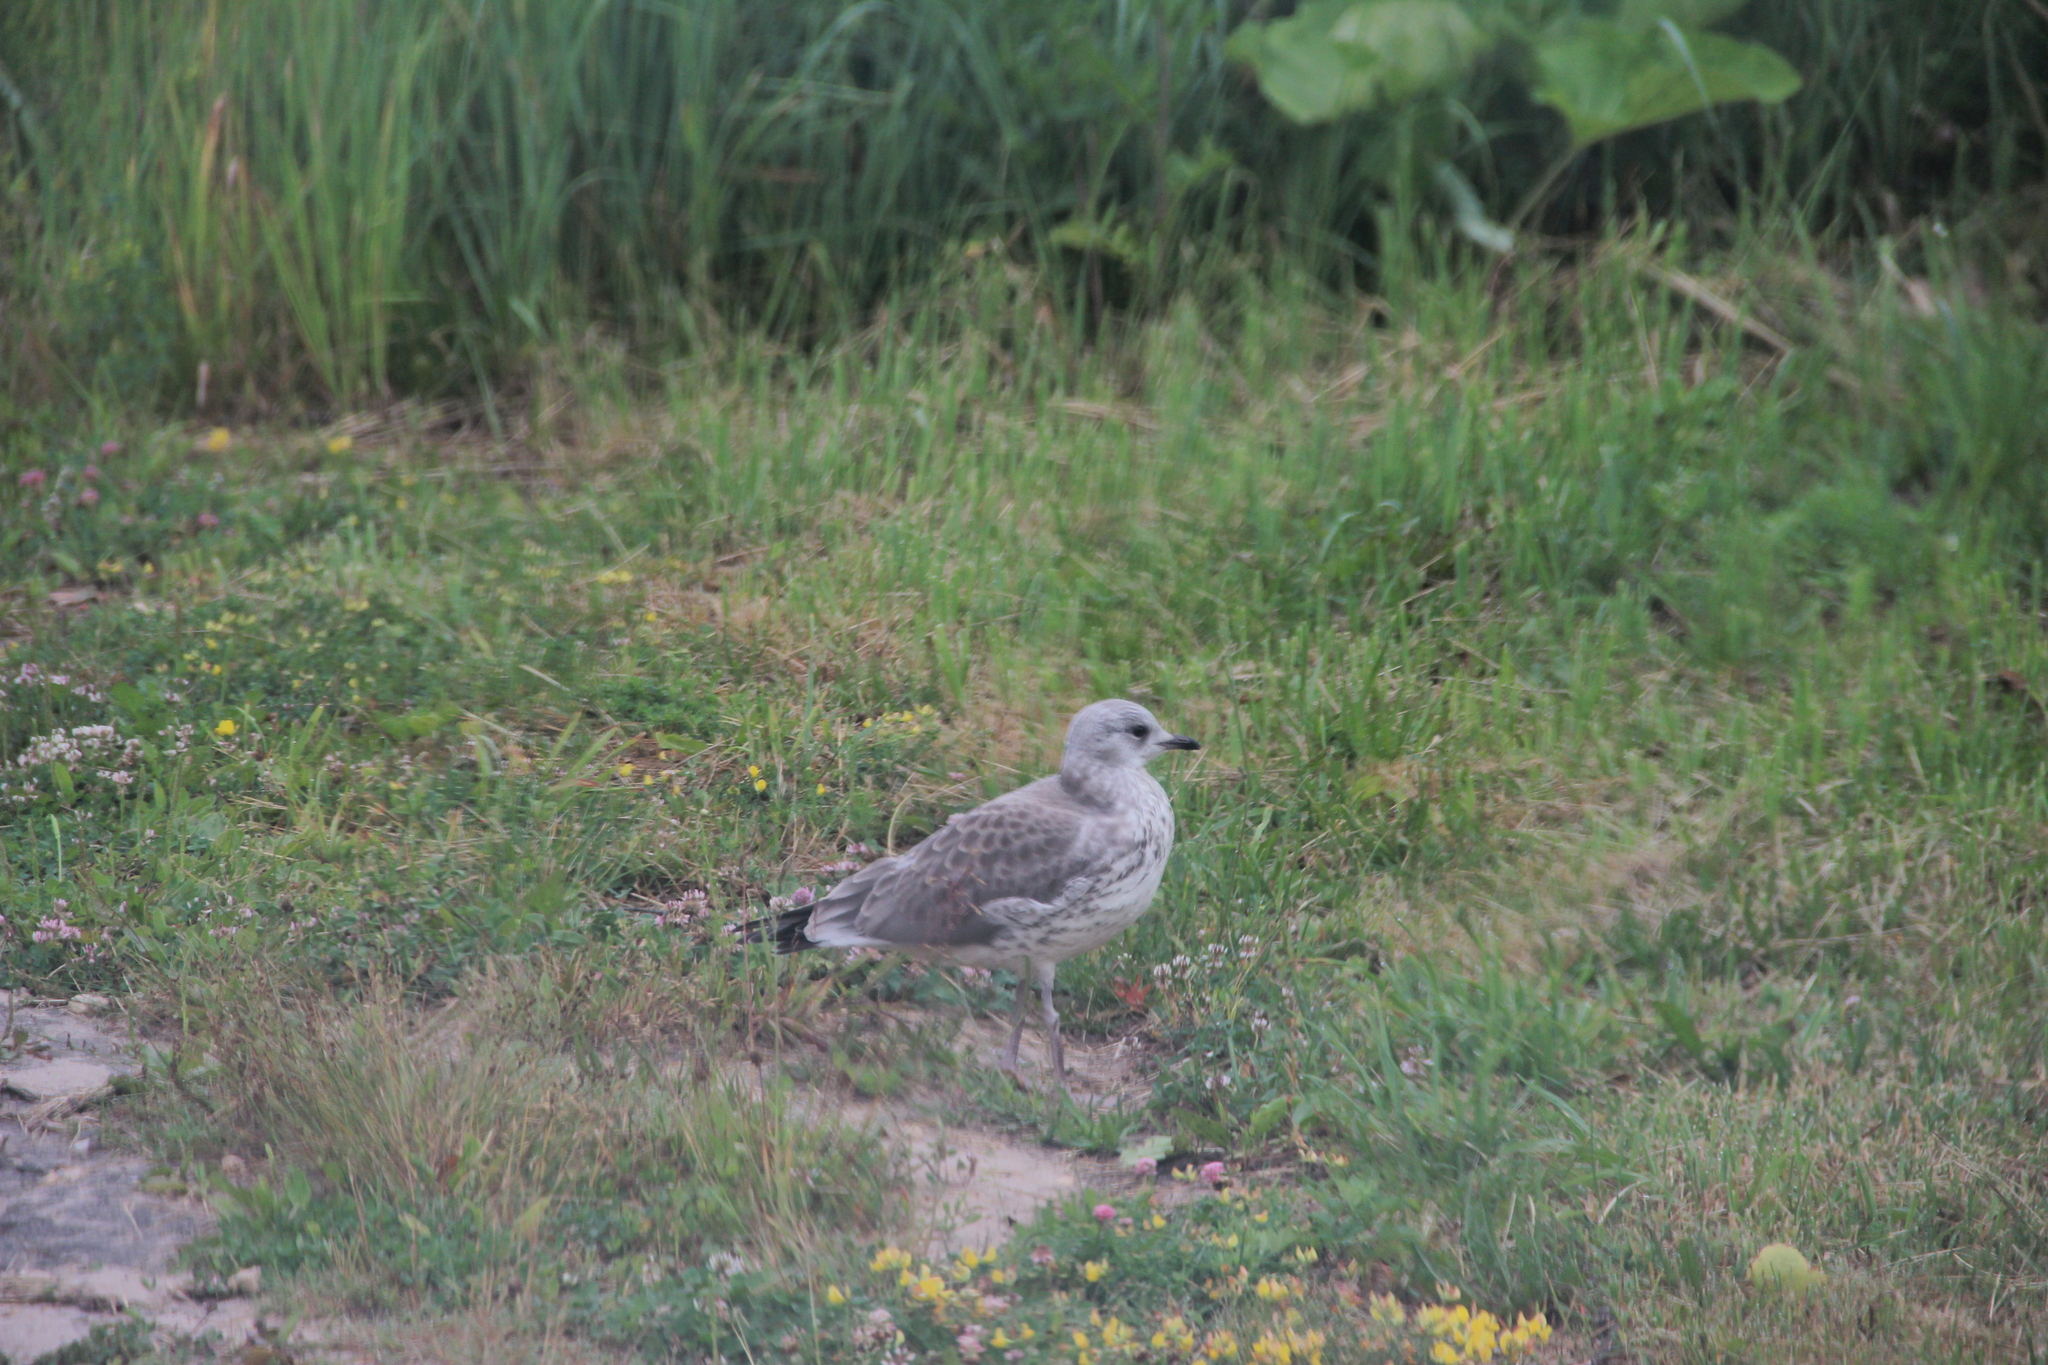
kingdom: Animalia
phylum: Chordata
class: Aves
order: Charadriiformes
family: Laridae
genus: Larus
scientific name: Larus canus
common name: Mew gull
